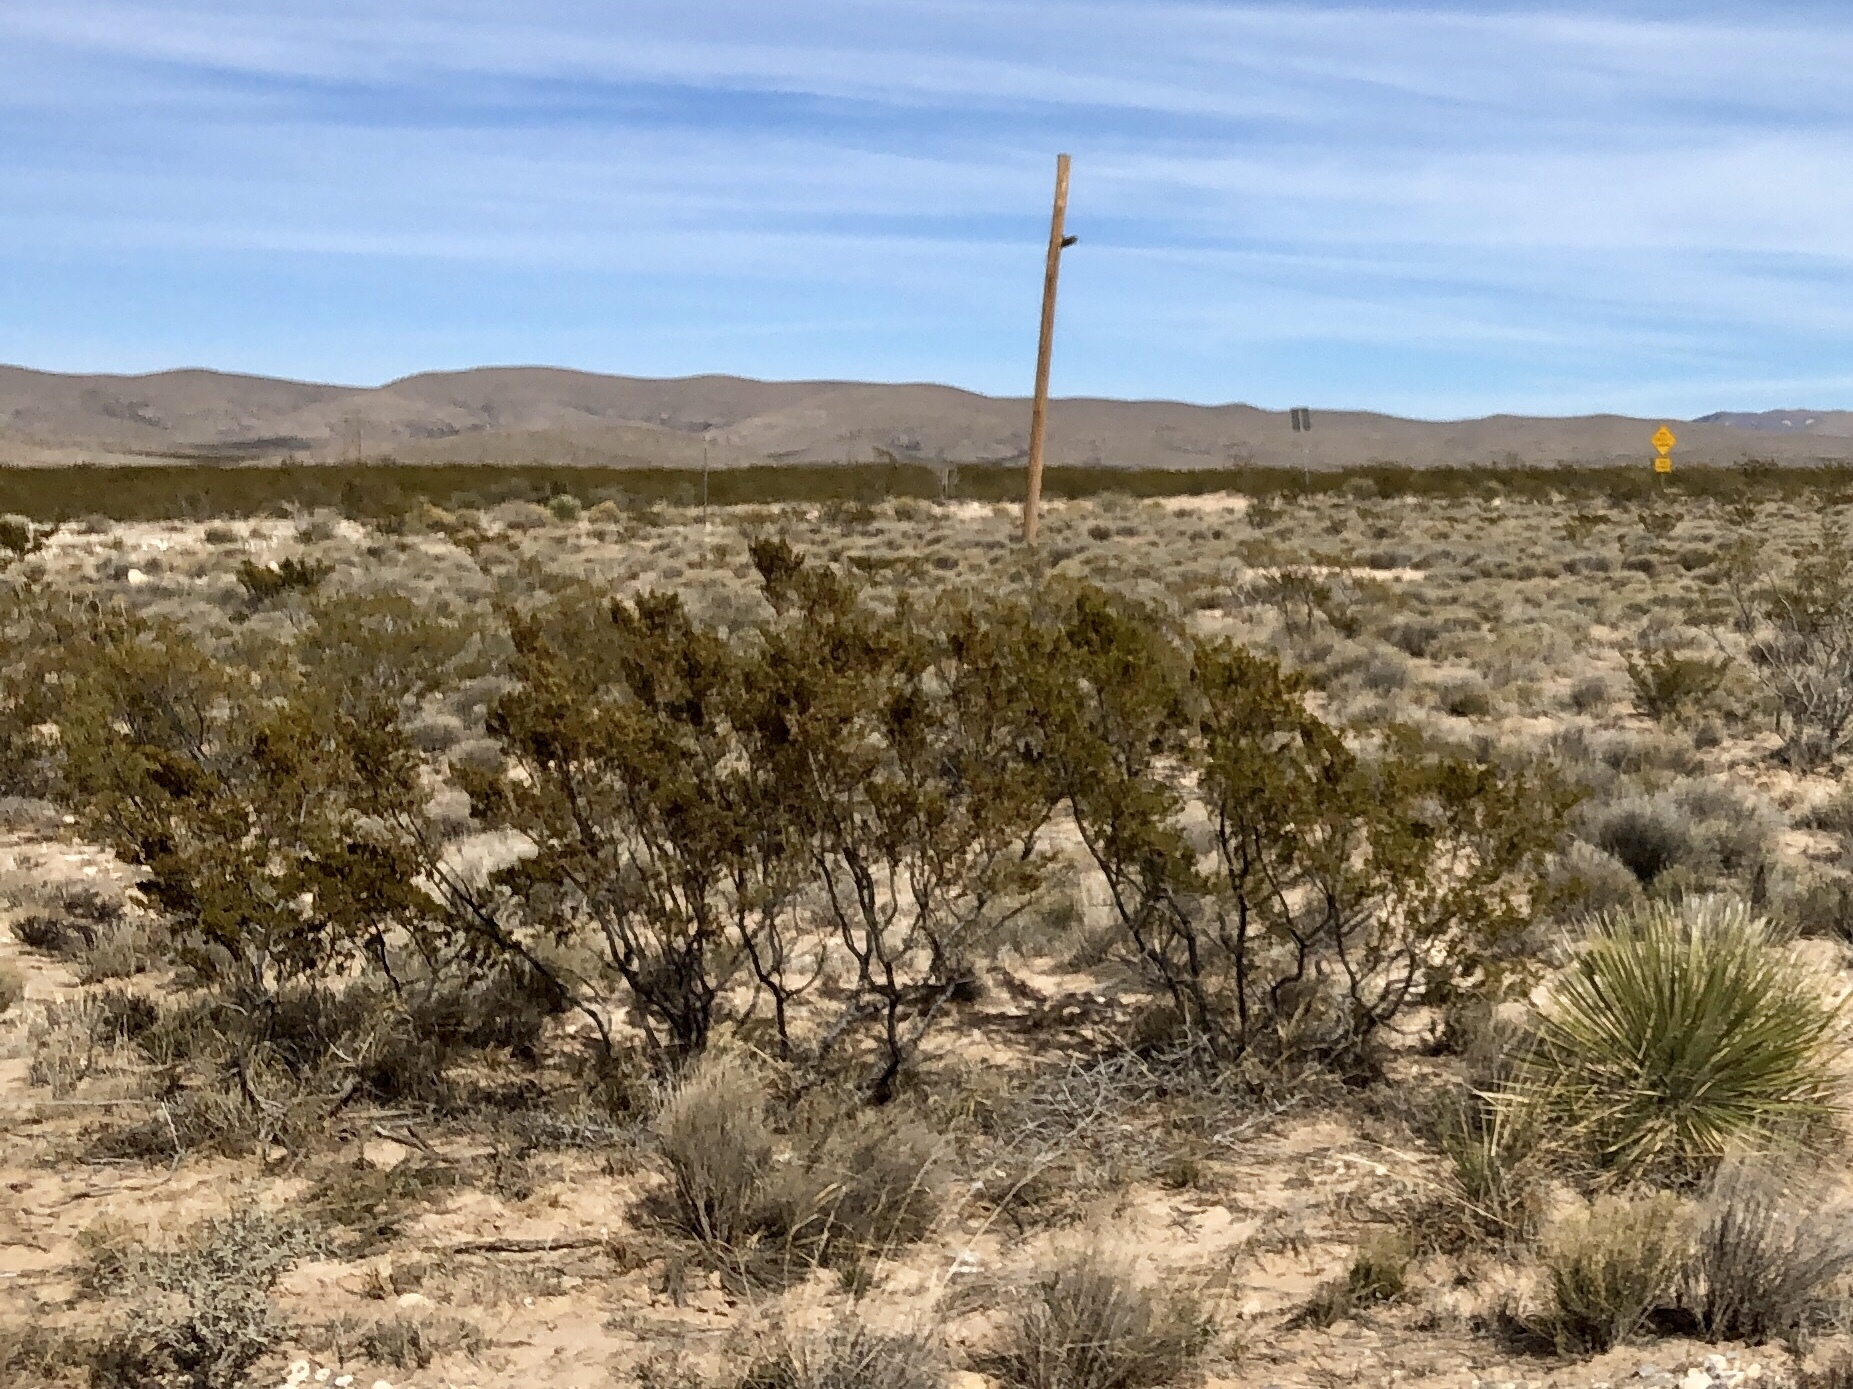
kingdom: Plantae
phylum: Tracheophyta
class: Magnoliopsida
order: Zygophyllales
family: Zygophyllaceae
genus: Larrea
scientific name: Larrea tridentata
